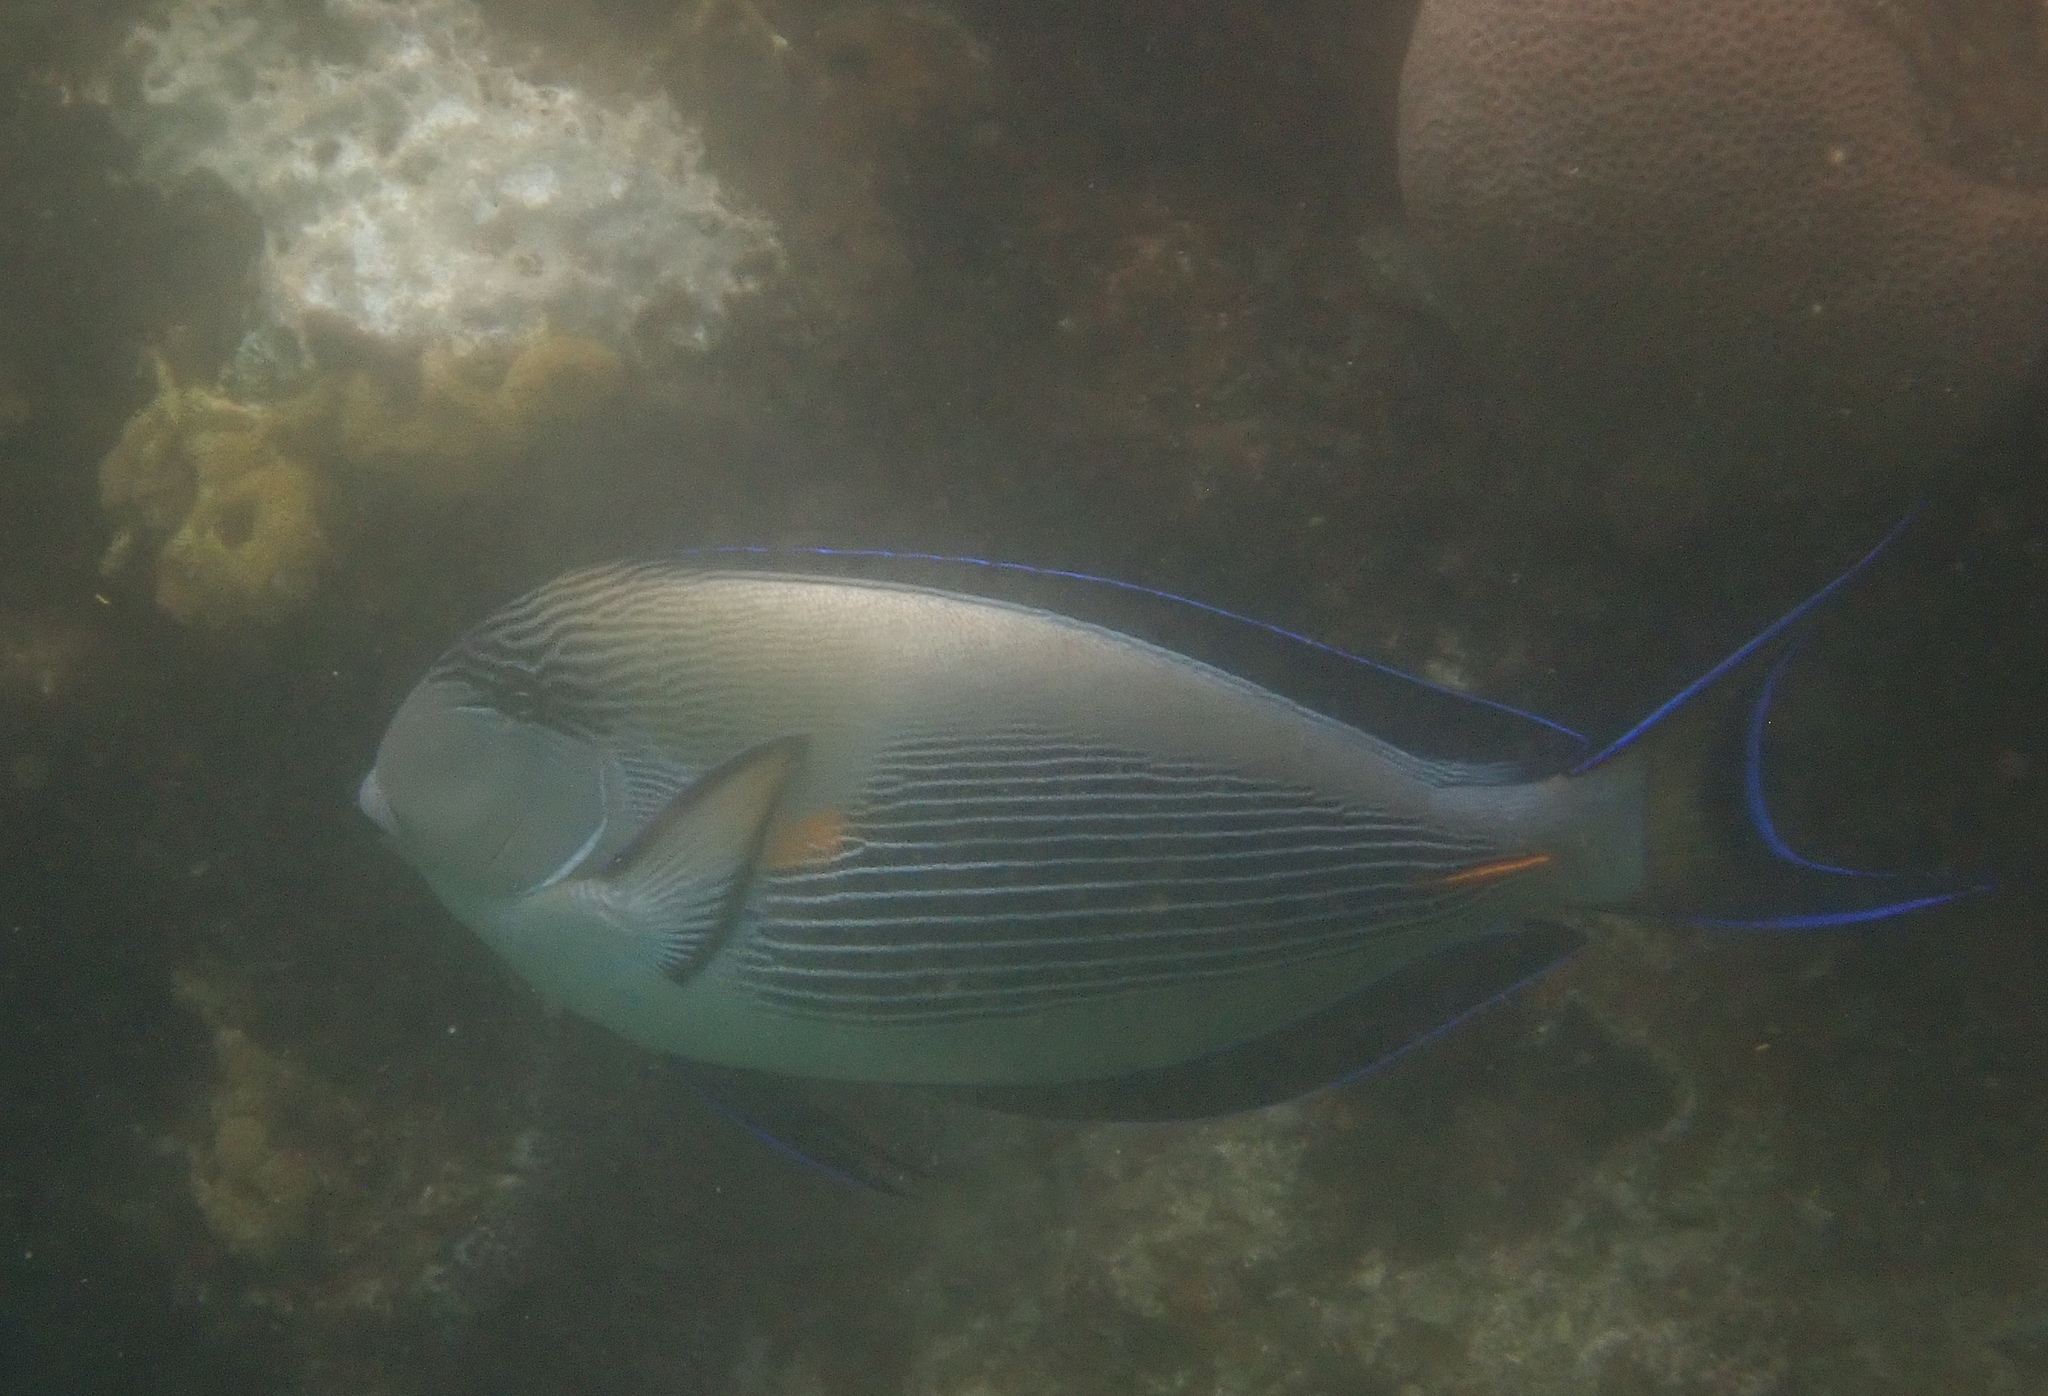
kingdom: Animalia
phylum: Chordata
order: Perciformes
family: Acanthuridae
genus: Acanthurus
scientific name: Acanthurus sohal
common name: Red sea surgeonfish
